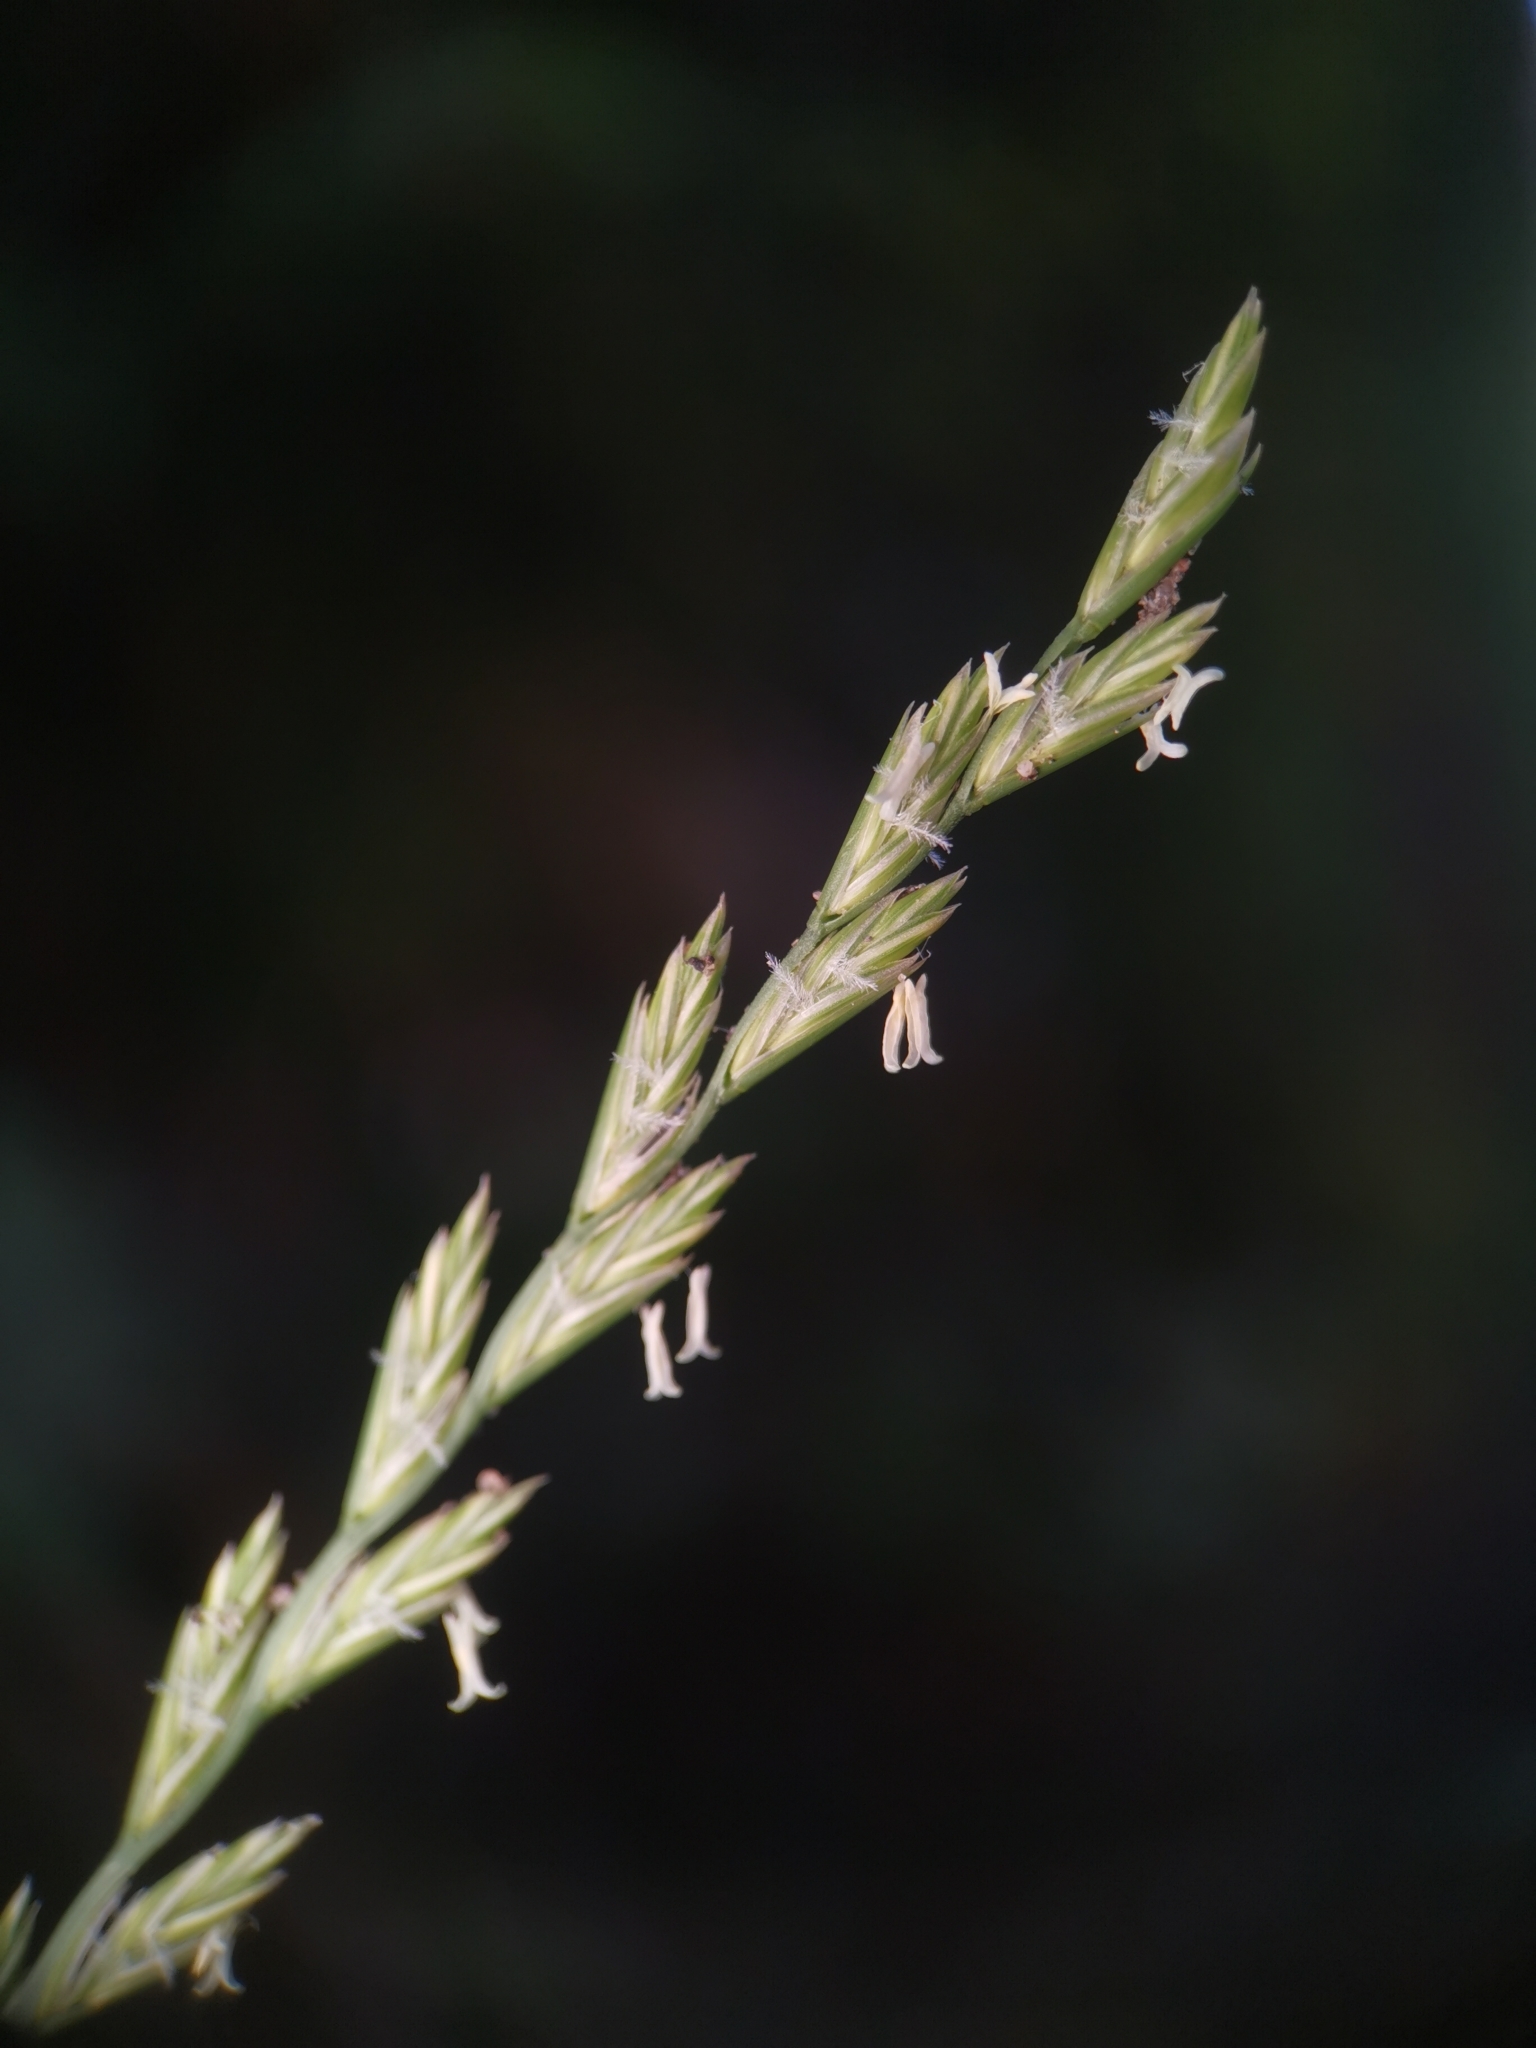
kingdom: Plantae
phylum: Tracheophyta
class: Liliopsida
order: Poales
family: Poaceae
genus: Lolium
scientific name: Lolium perenne
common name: Perennial ryegrass
